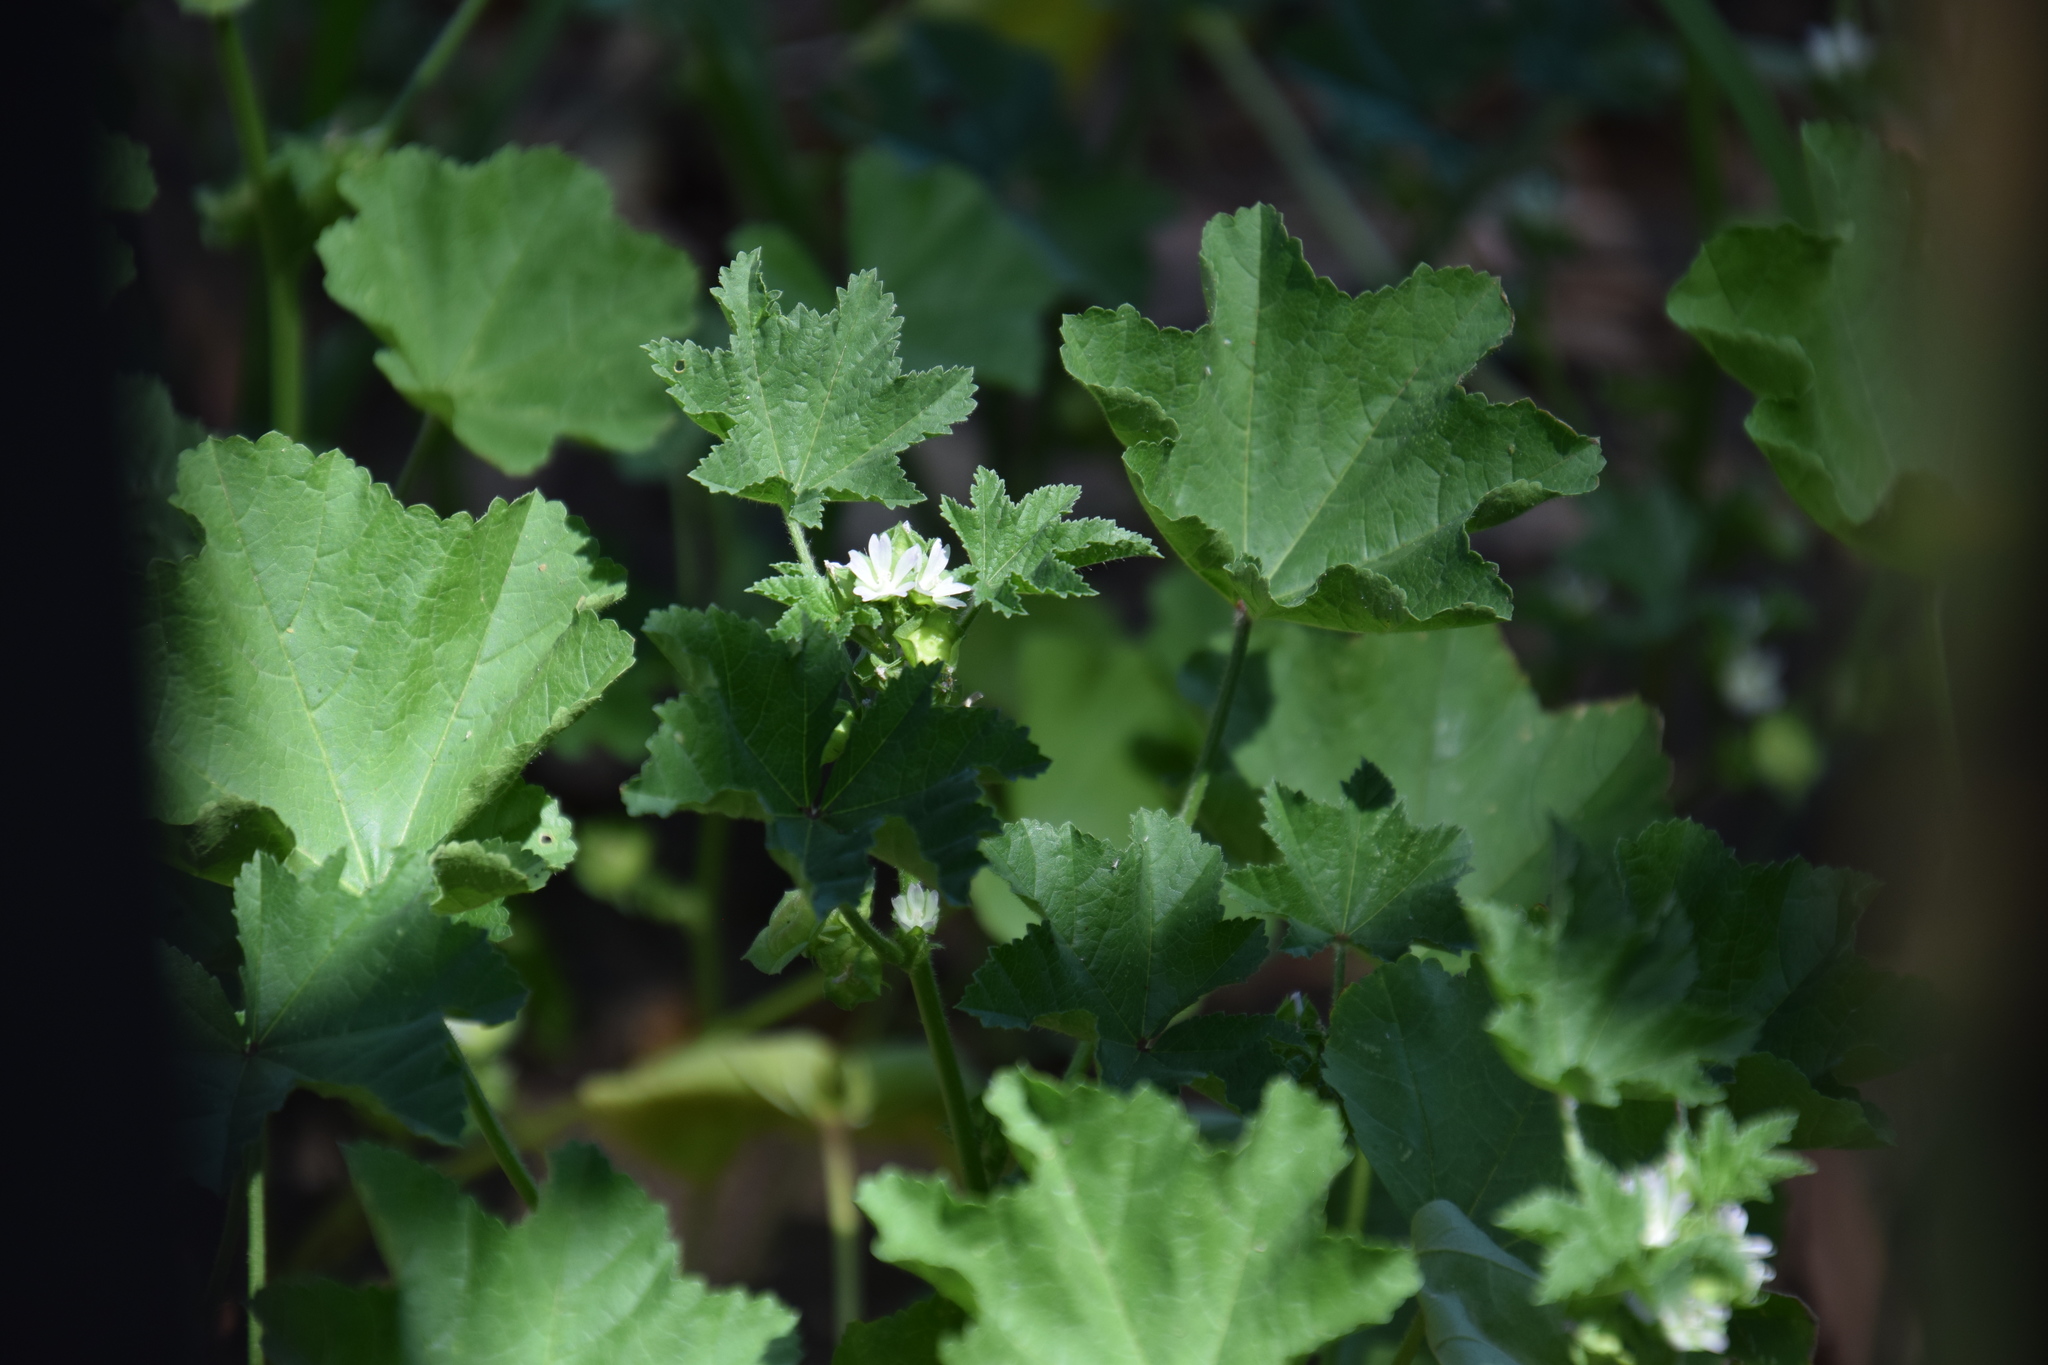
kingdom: Plantae
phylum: Tracheophyta
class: Magnoliopsida
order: Malvales
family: Malvaceae
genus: Malva
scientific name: Malva parviflora
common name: Least mallow
